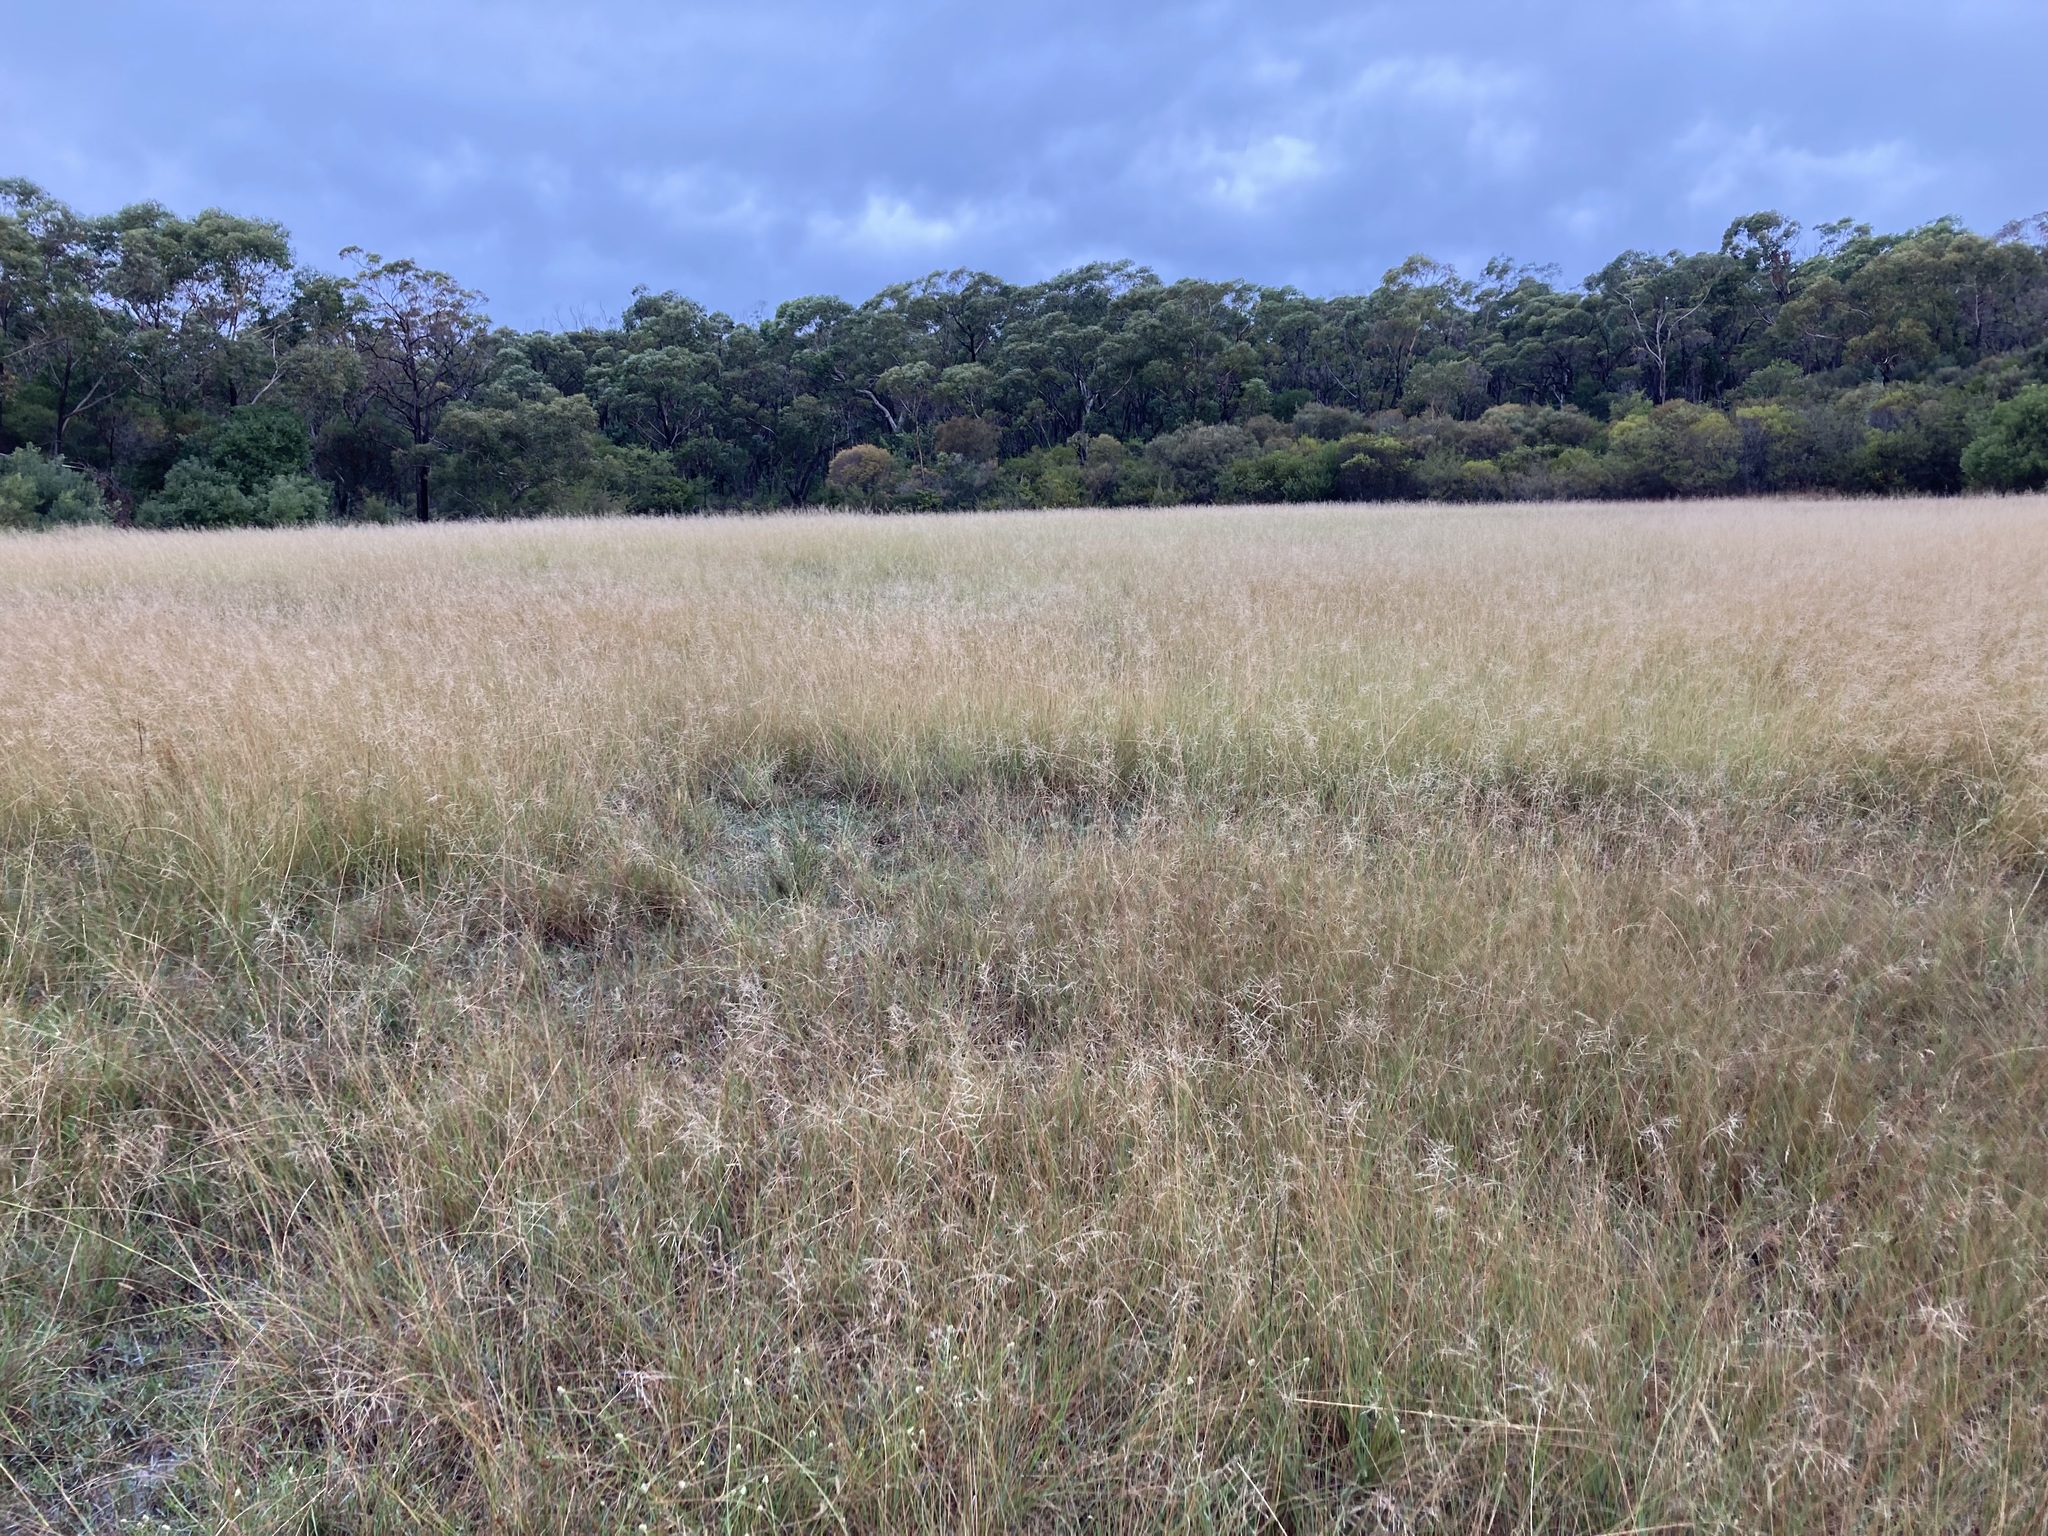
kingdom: Plantae
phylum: Tracheophyta
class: Liliopsida
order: Poales
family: Poaceae
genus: Eragrostis
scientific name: Eragrostis curvula
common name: African love-grass
